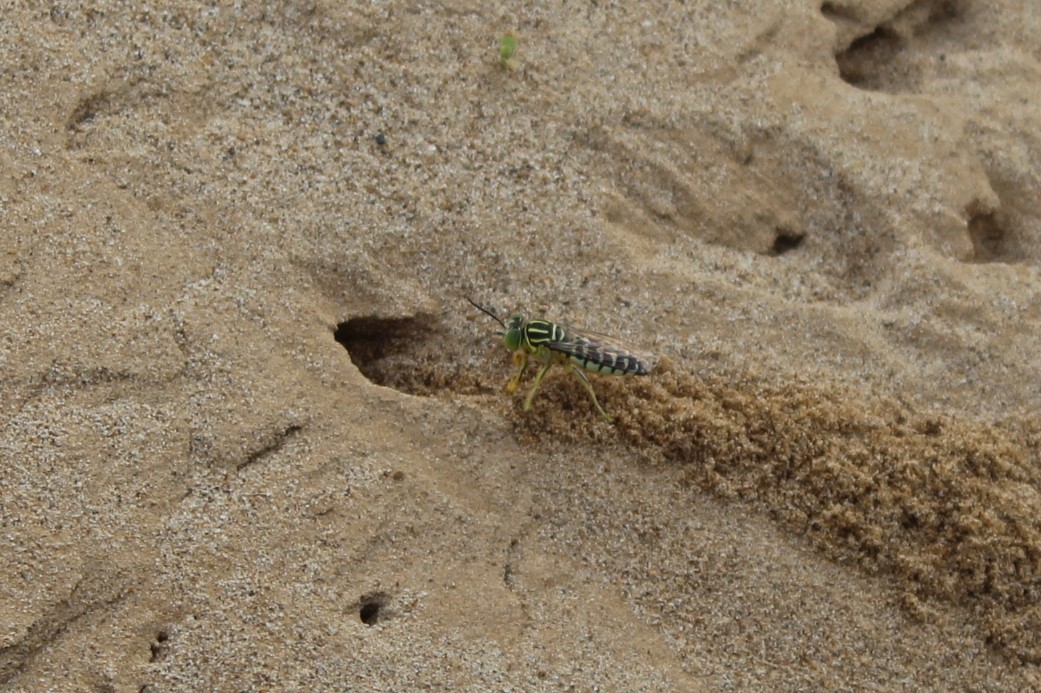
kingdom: Animalia
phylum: Arthropoda
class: Insecta
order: Hymenoptera
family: Crabronidae
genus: Stictia
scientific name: Stictia signata
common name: Sand wasp
